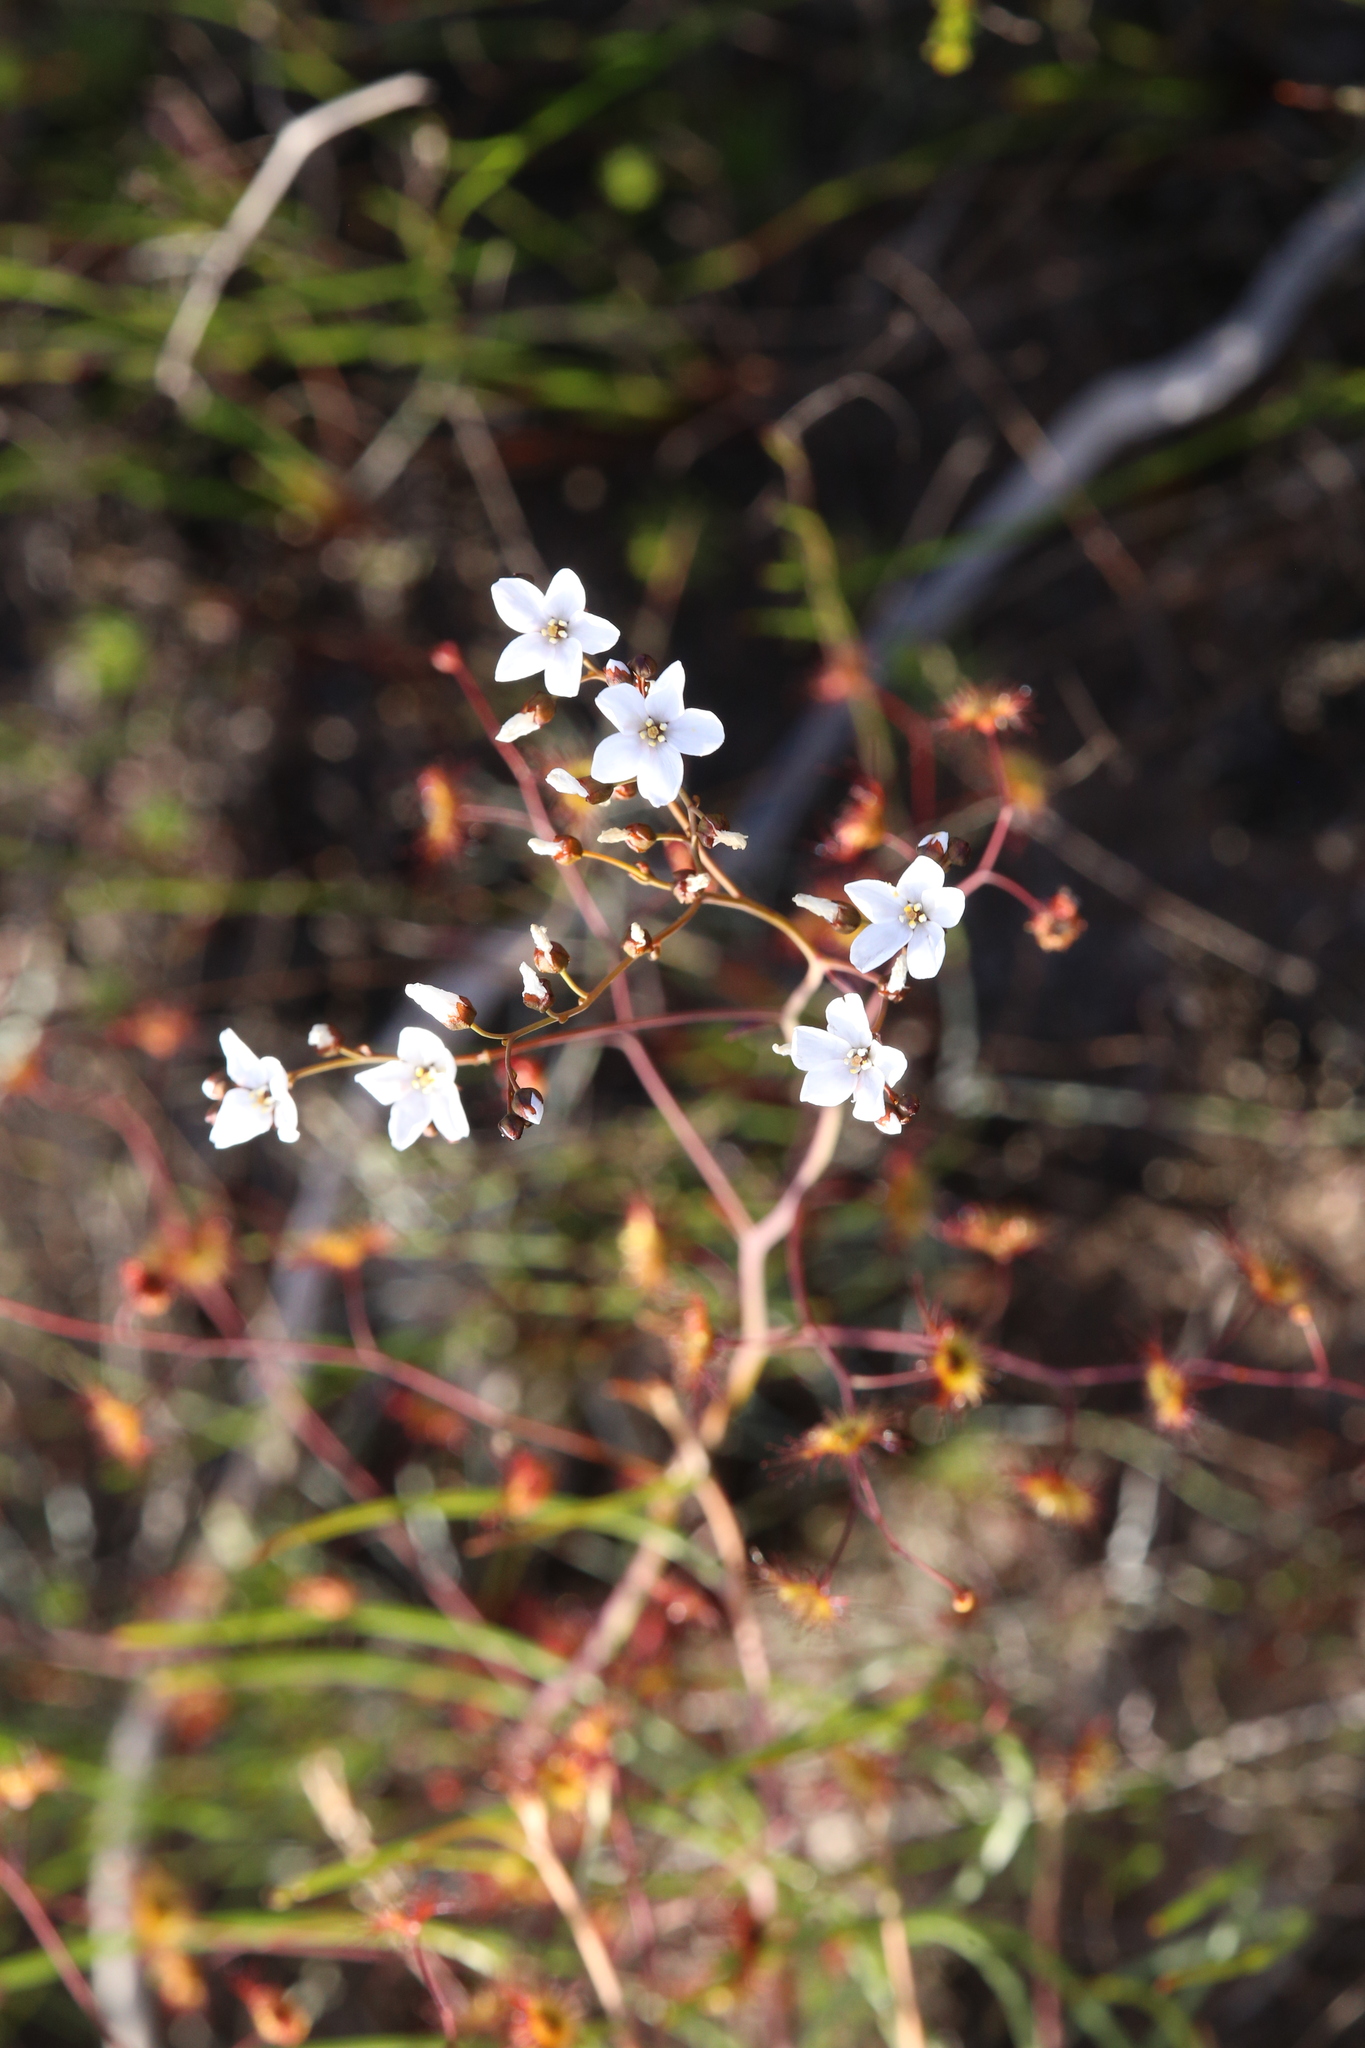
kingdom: Plantae
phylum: Tracheophyta
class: Magnoliopsida
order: Caryophyllales
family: Droseraceae
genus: Drosera
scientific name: Drosera gigantea
